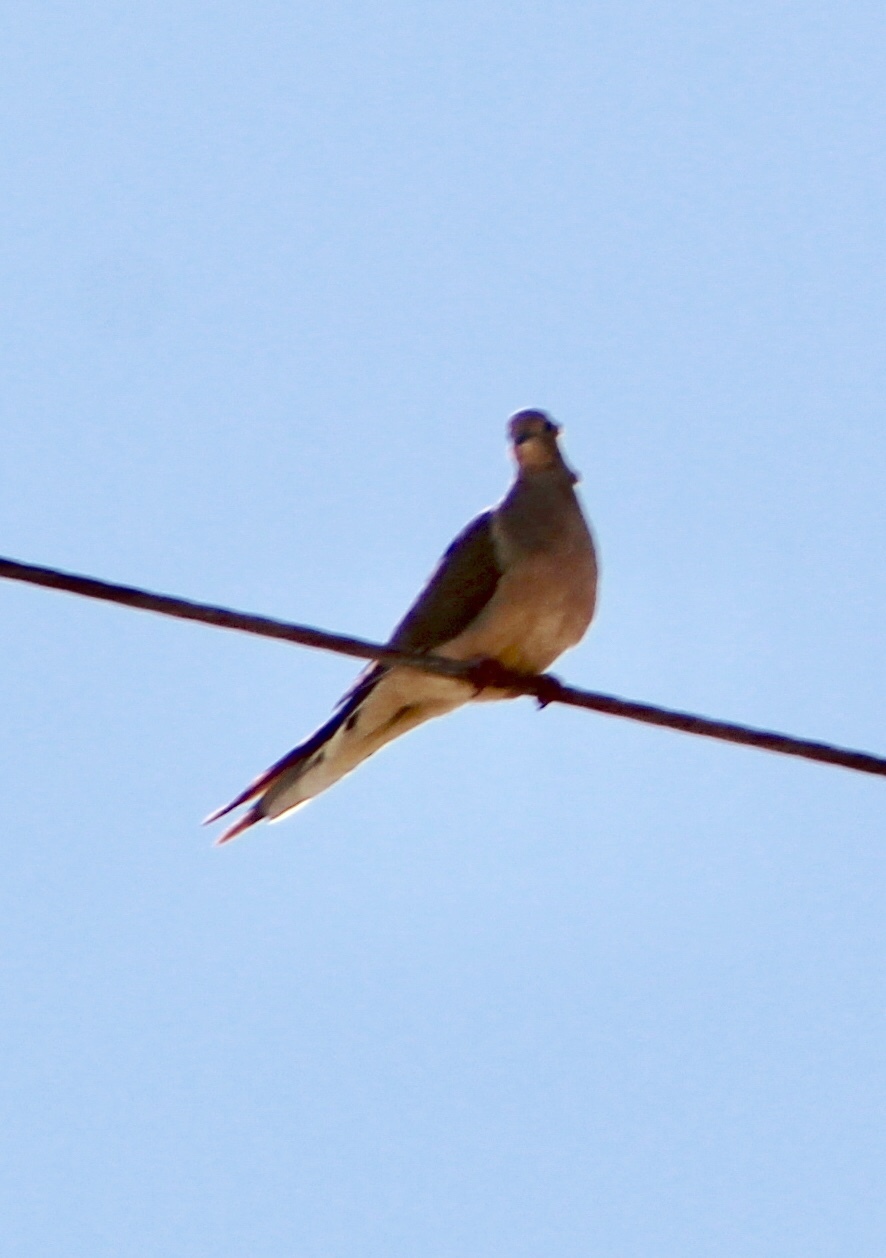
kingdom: Animalia
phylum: Chordata
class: Aves
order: Columbiformes
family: Columbidae
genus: Zenaida
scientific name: Zenaida macroura
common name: Mourning dove
